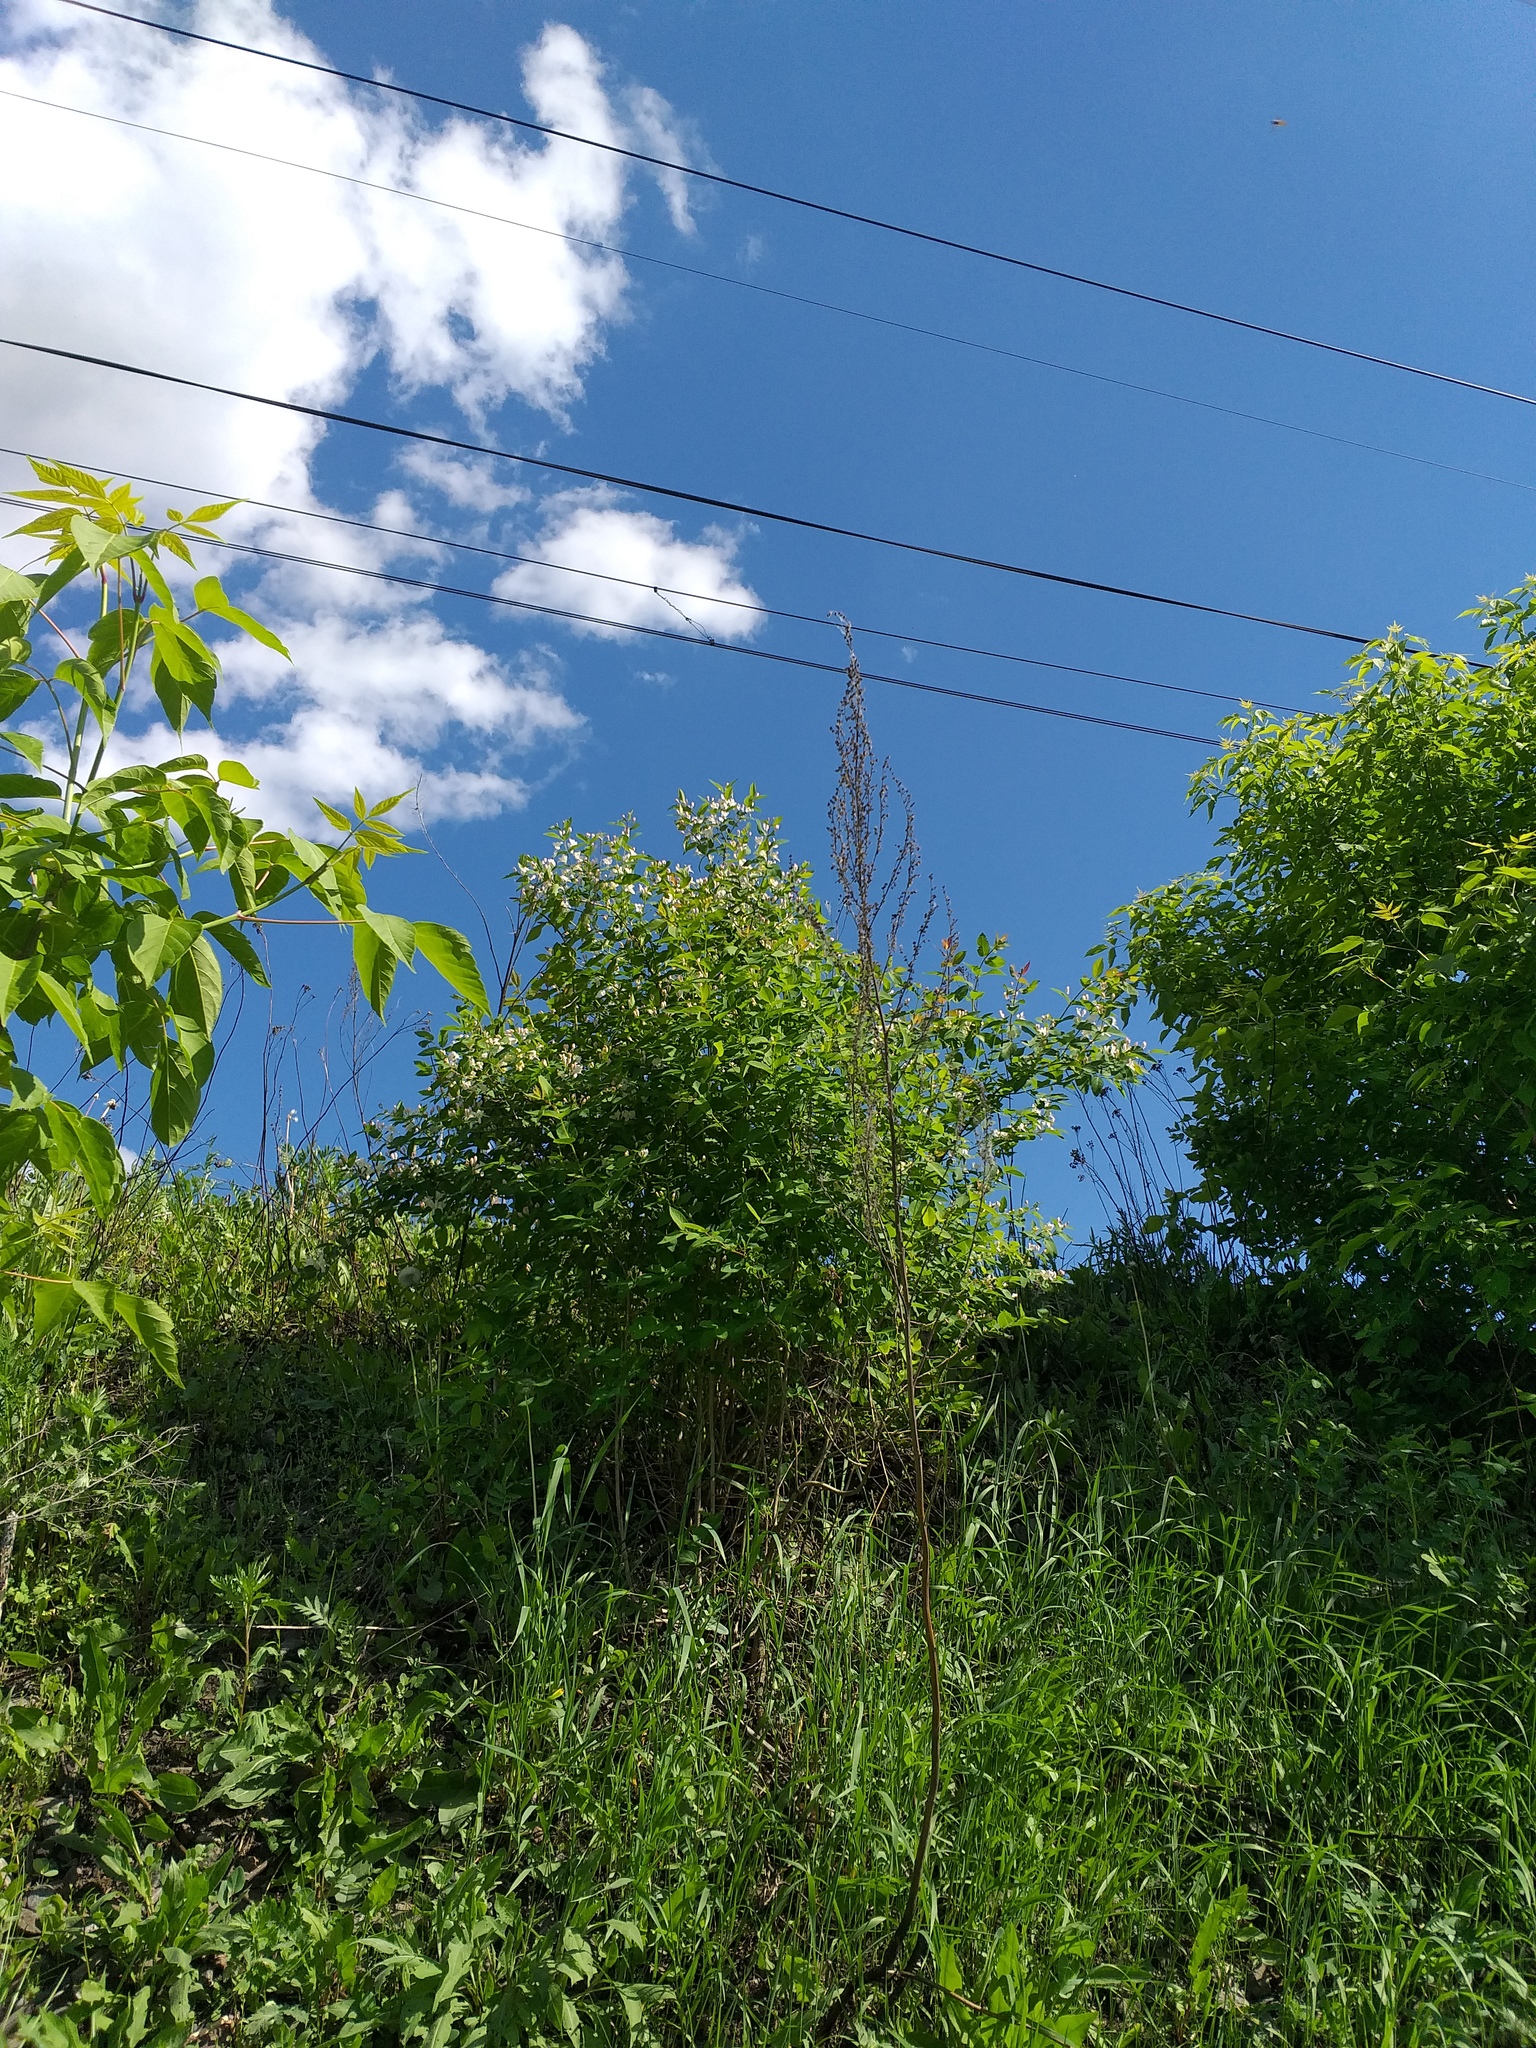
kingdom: Plantae
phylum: Tracheophyta
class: Magnoliopsida
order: Dipsacales
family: Caprifoliaceae
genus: Lonicera
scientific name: Lonicera tatarica
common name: Tatarian honeysuckle
